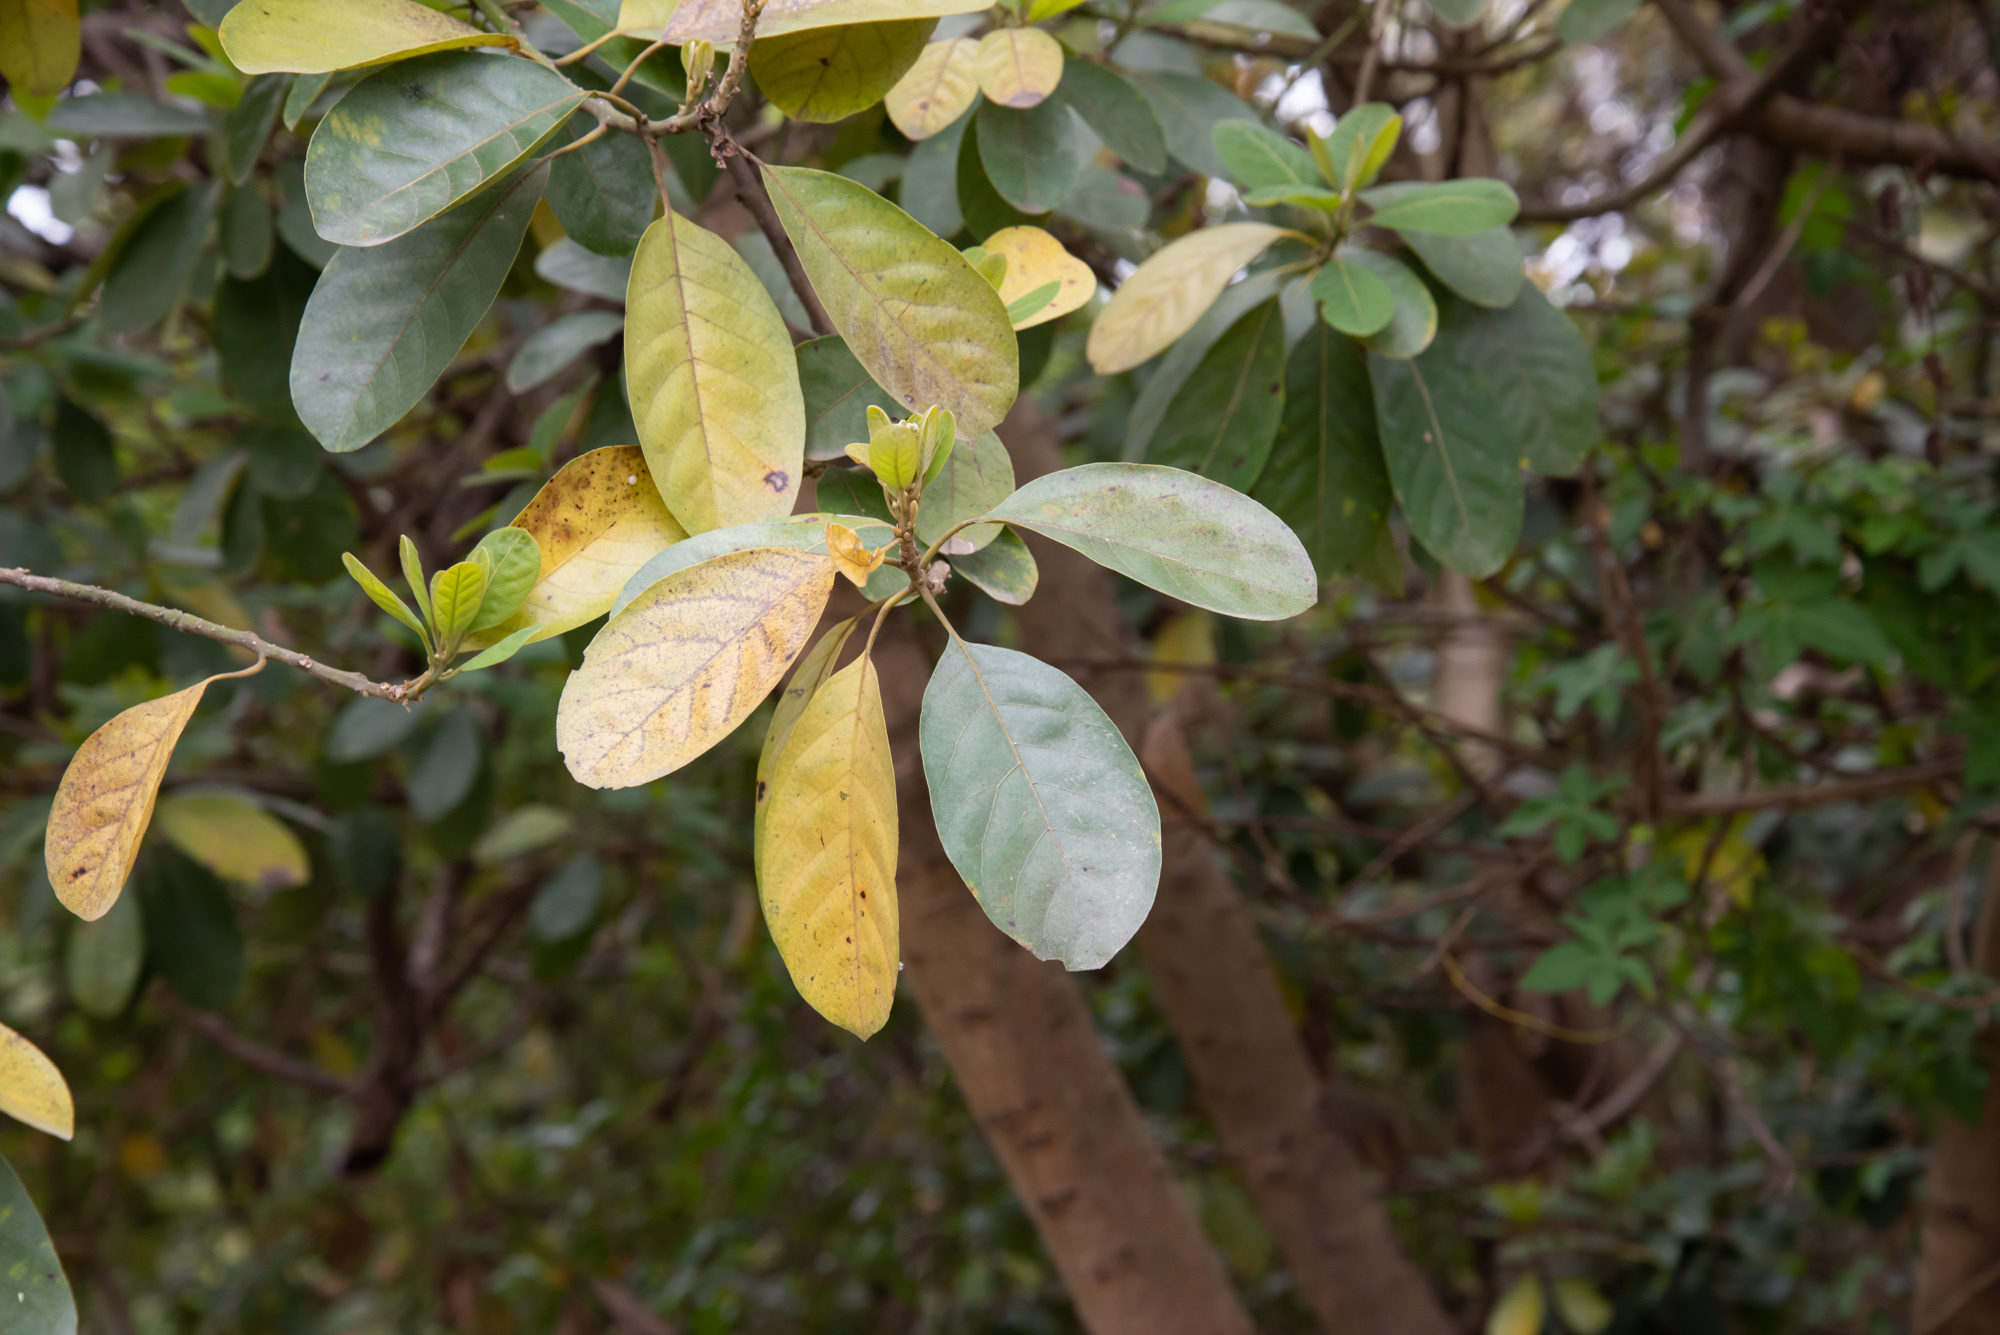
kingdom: Plantae
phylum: Tracheophyta
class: Magnoliopsida
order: Laurales
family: Lauraceae
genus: Litsea
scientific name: Litsea glutinosa
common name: Indian-laurel
